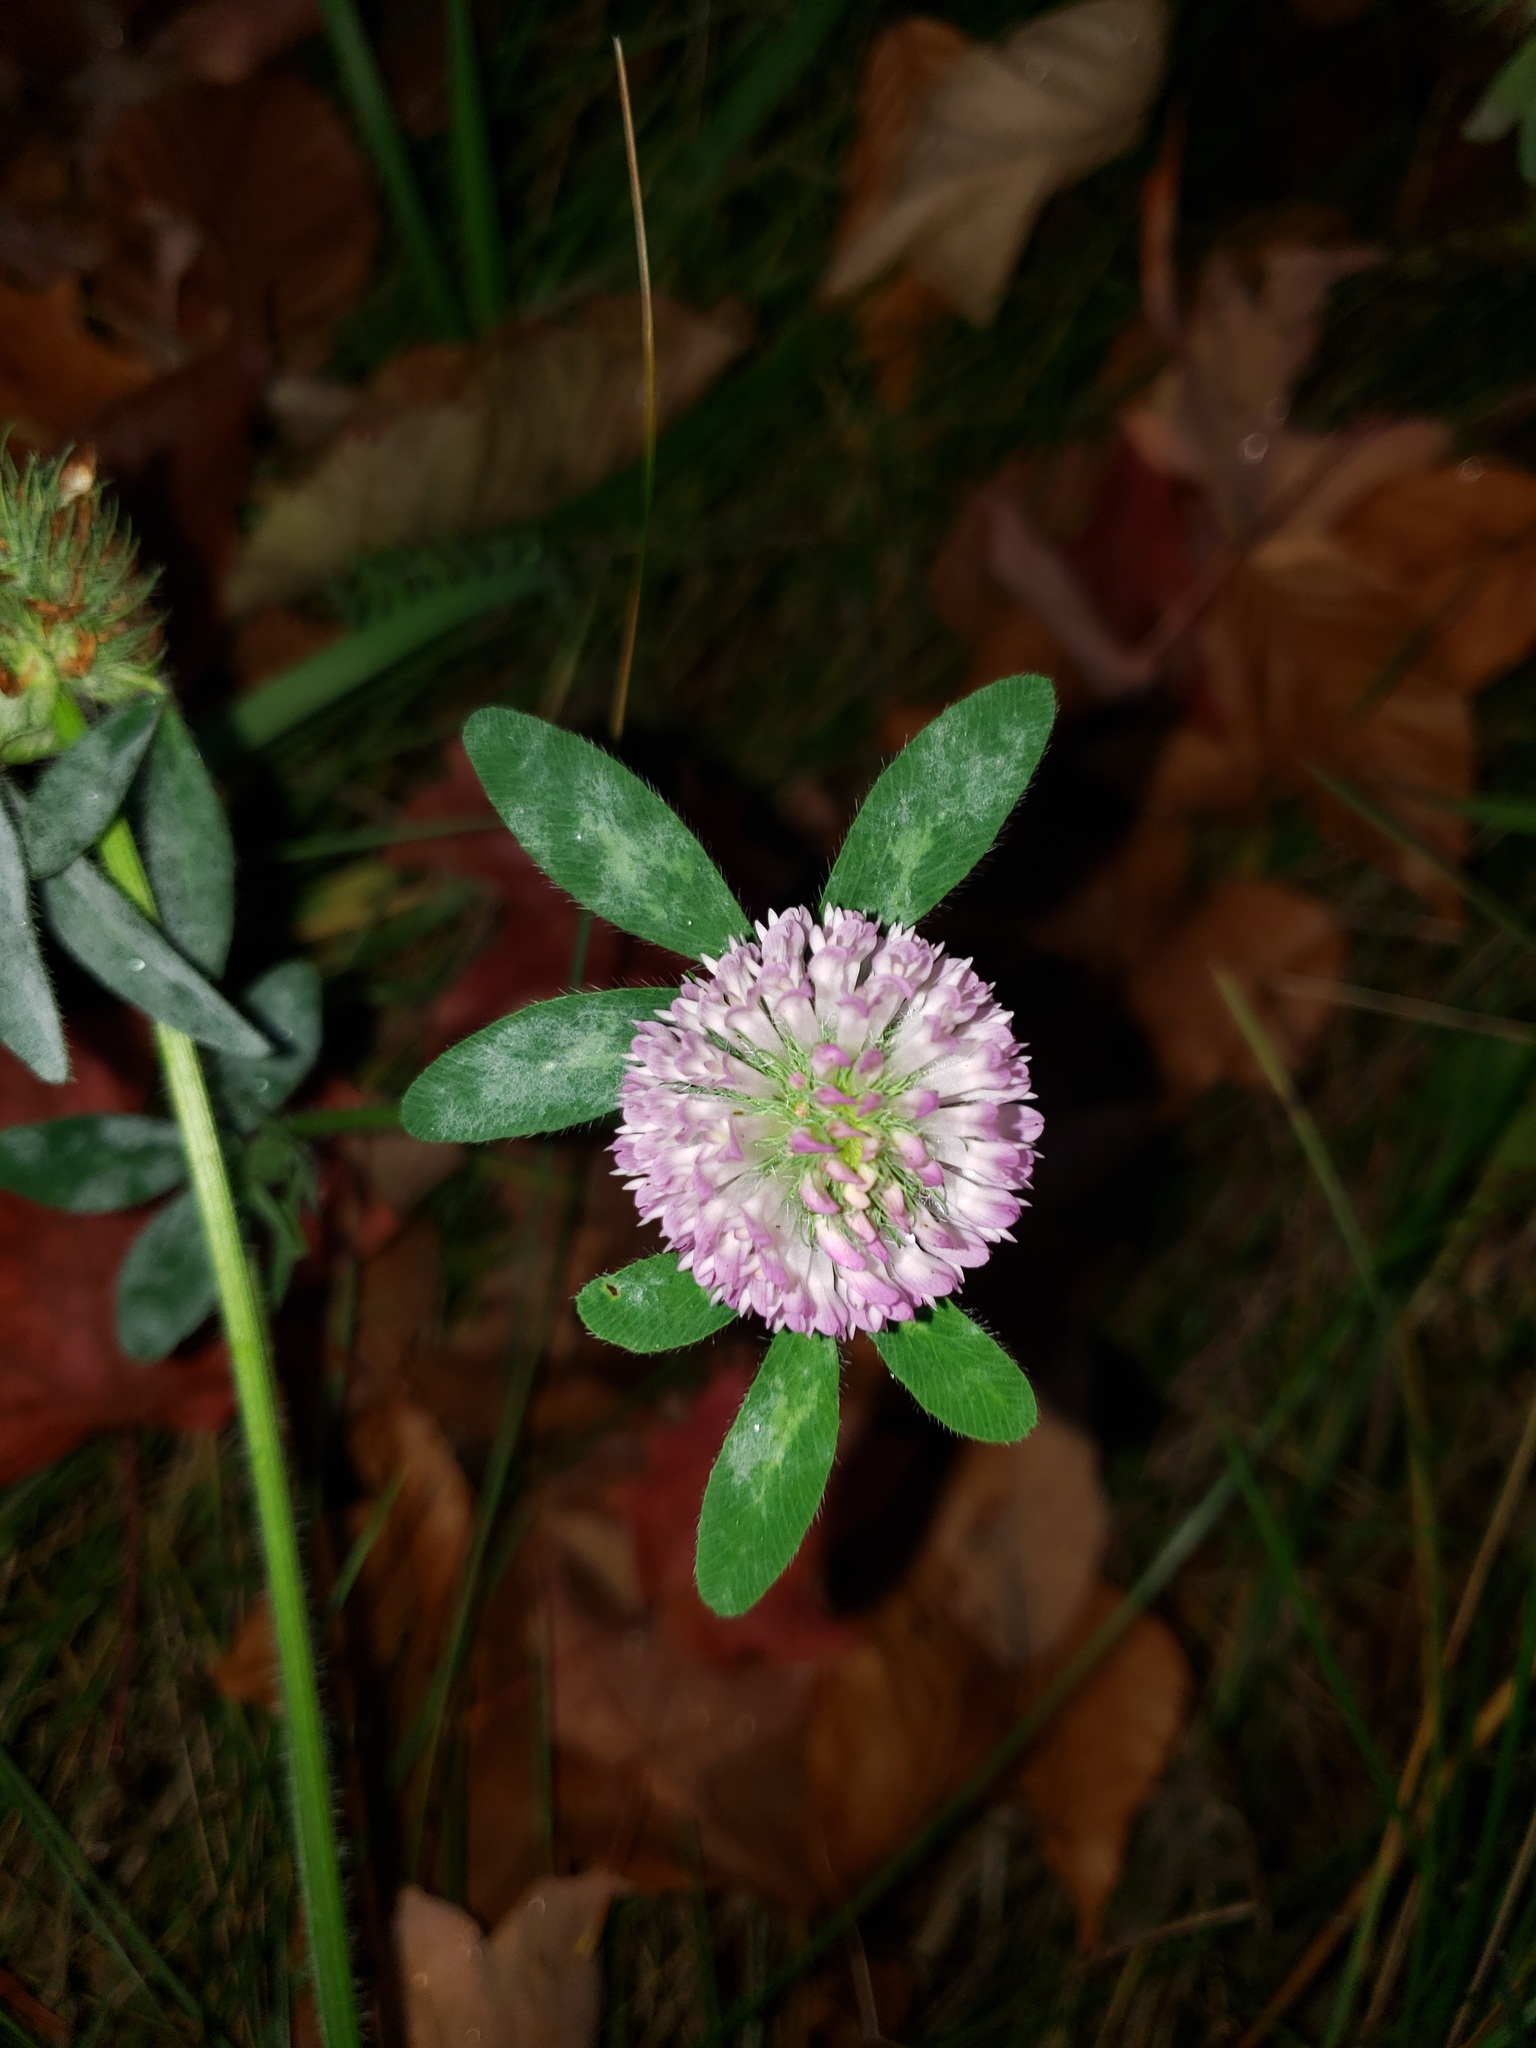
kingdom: Plantae
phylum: Tracheophyta
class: Magnoliopsida
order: Fabales
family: Fabaceae
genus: Trifolium
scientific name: Trifolium pratense
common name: Red clover
